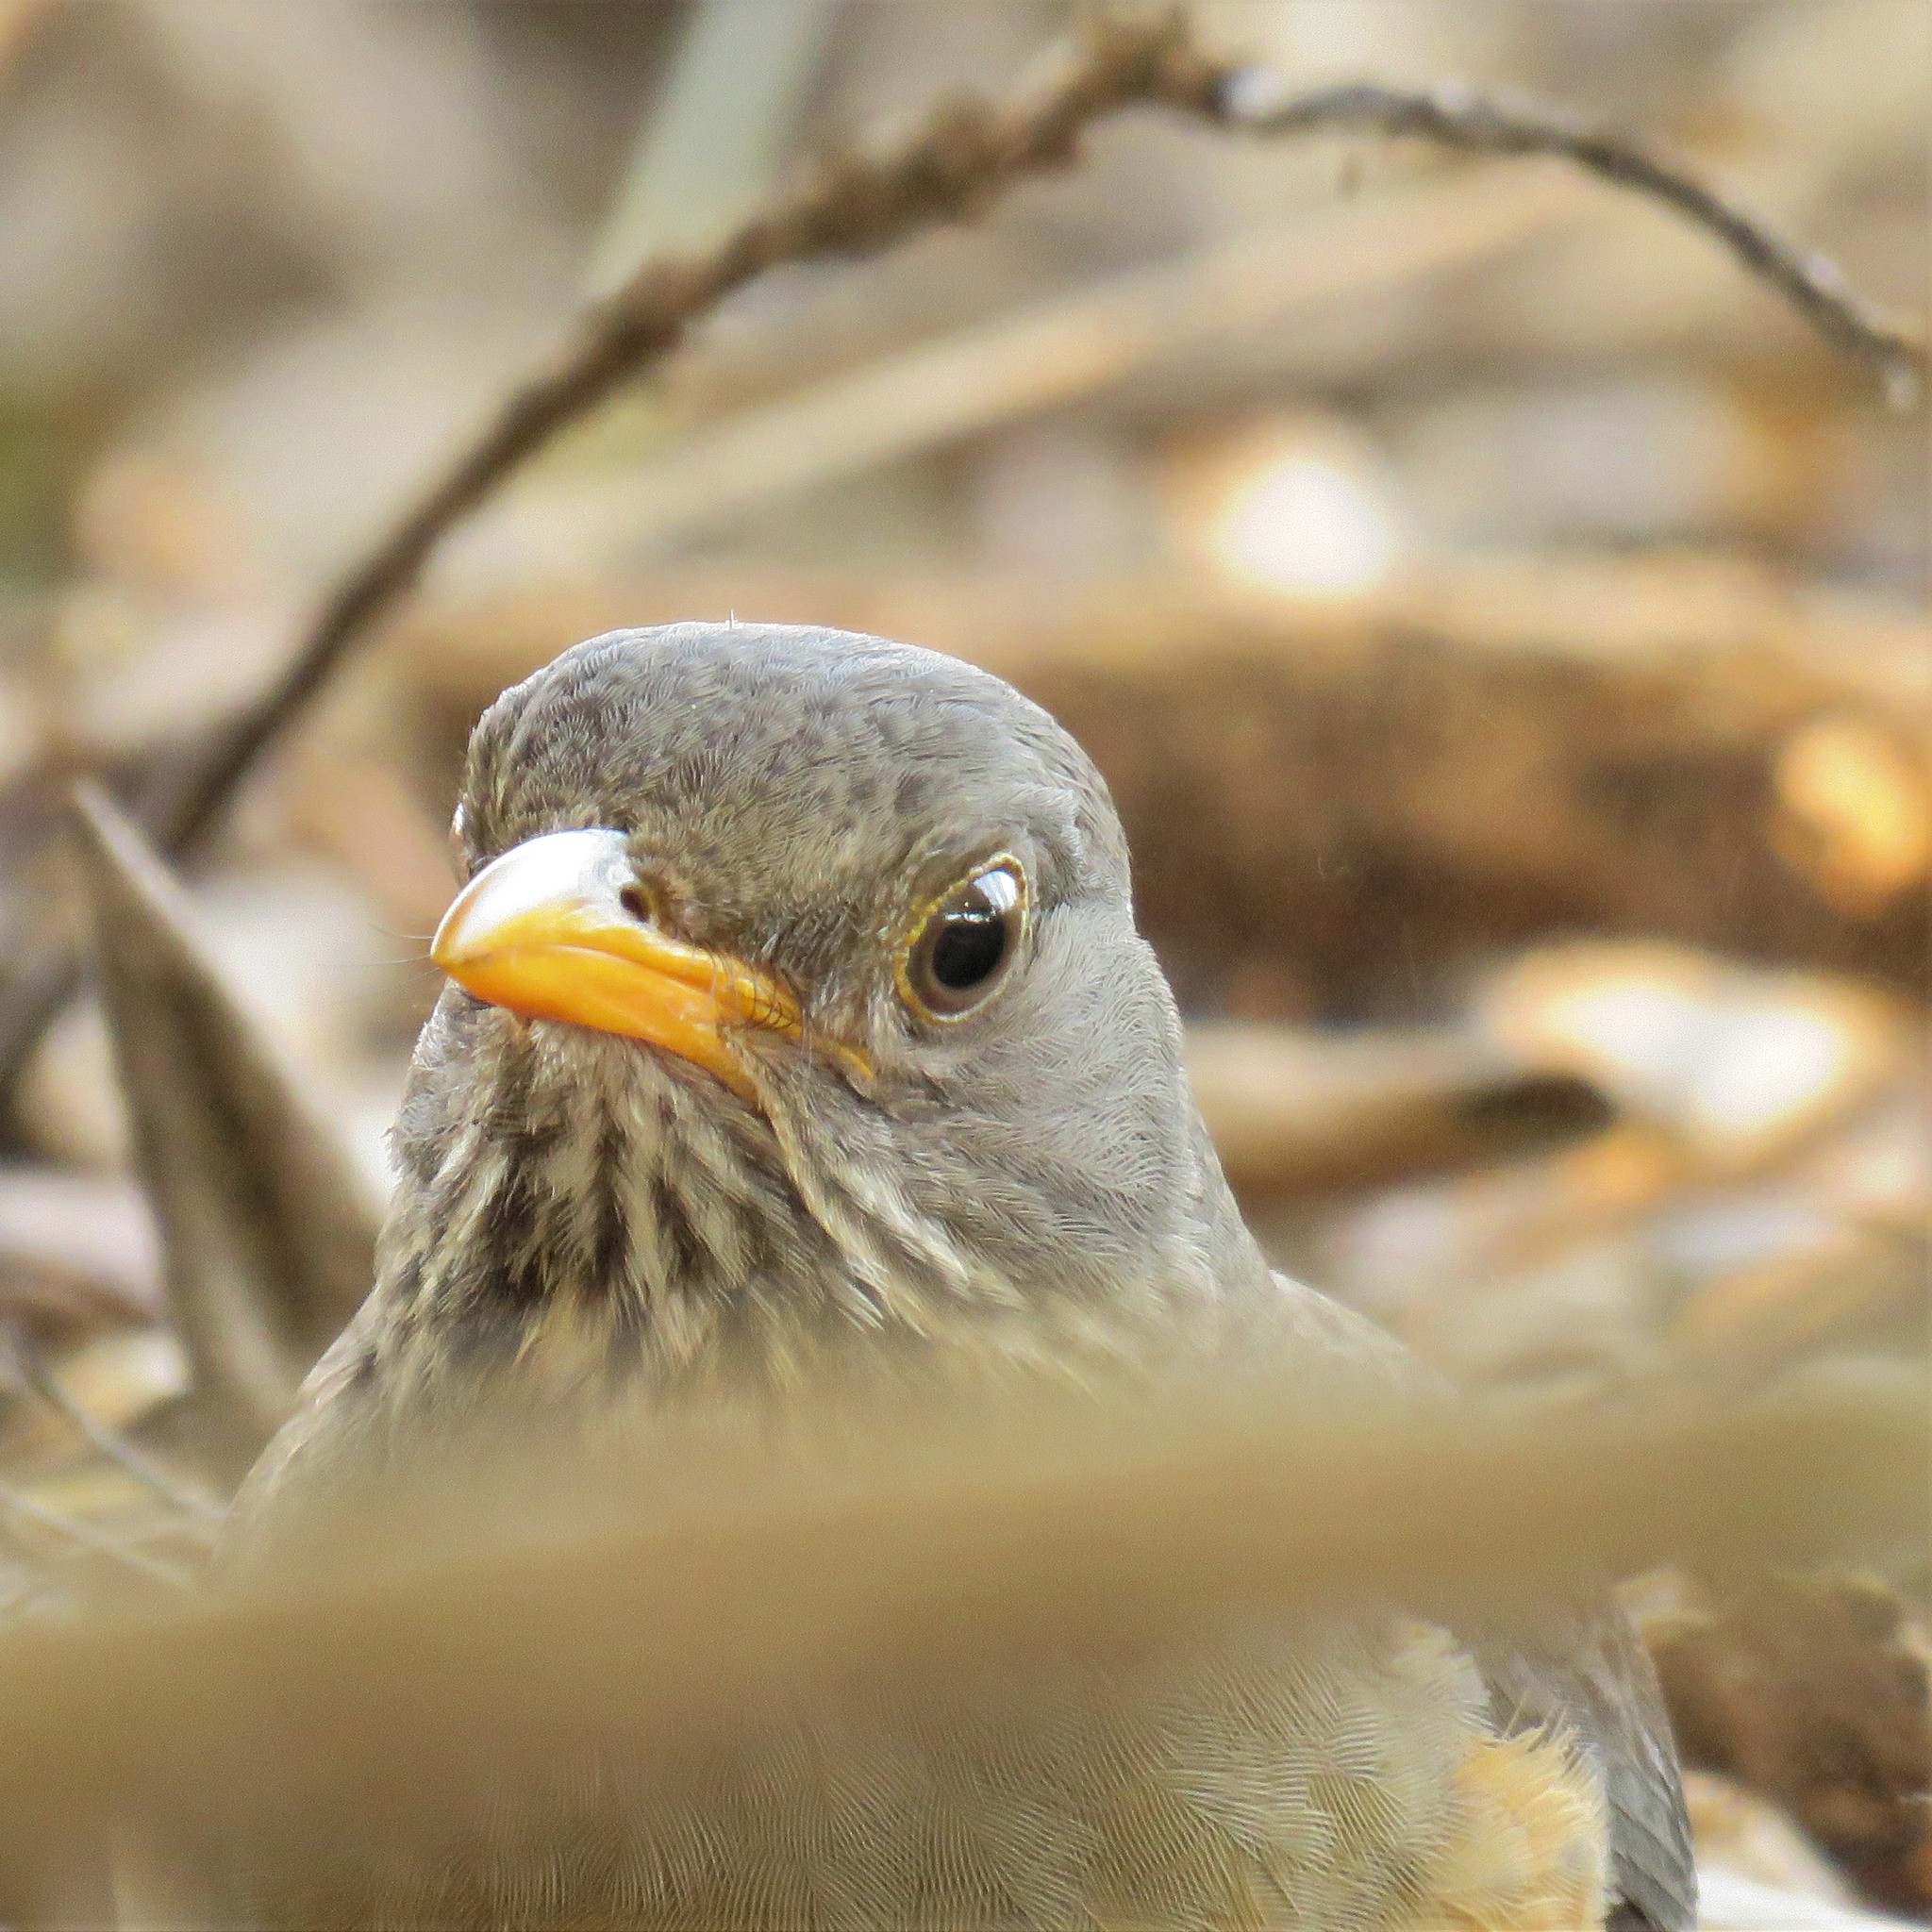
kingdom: Animalia
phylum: Chordata
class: Aves
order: Passeriformes
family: Turdidae
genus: Turdus
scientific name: Turdus olivaceus
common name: Olive thrush
